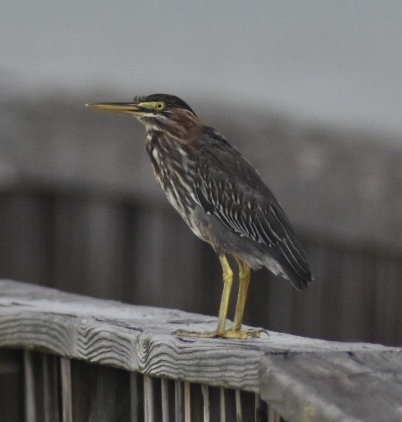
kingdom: Animalia
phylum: Chordata
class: Aves
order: Pelecaniformes
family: Ardeidae
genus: Butorides
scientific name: Butorides virescens
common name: Green heron
